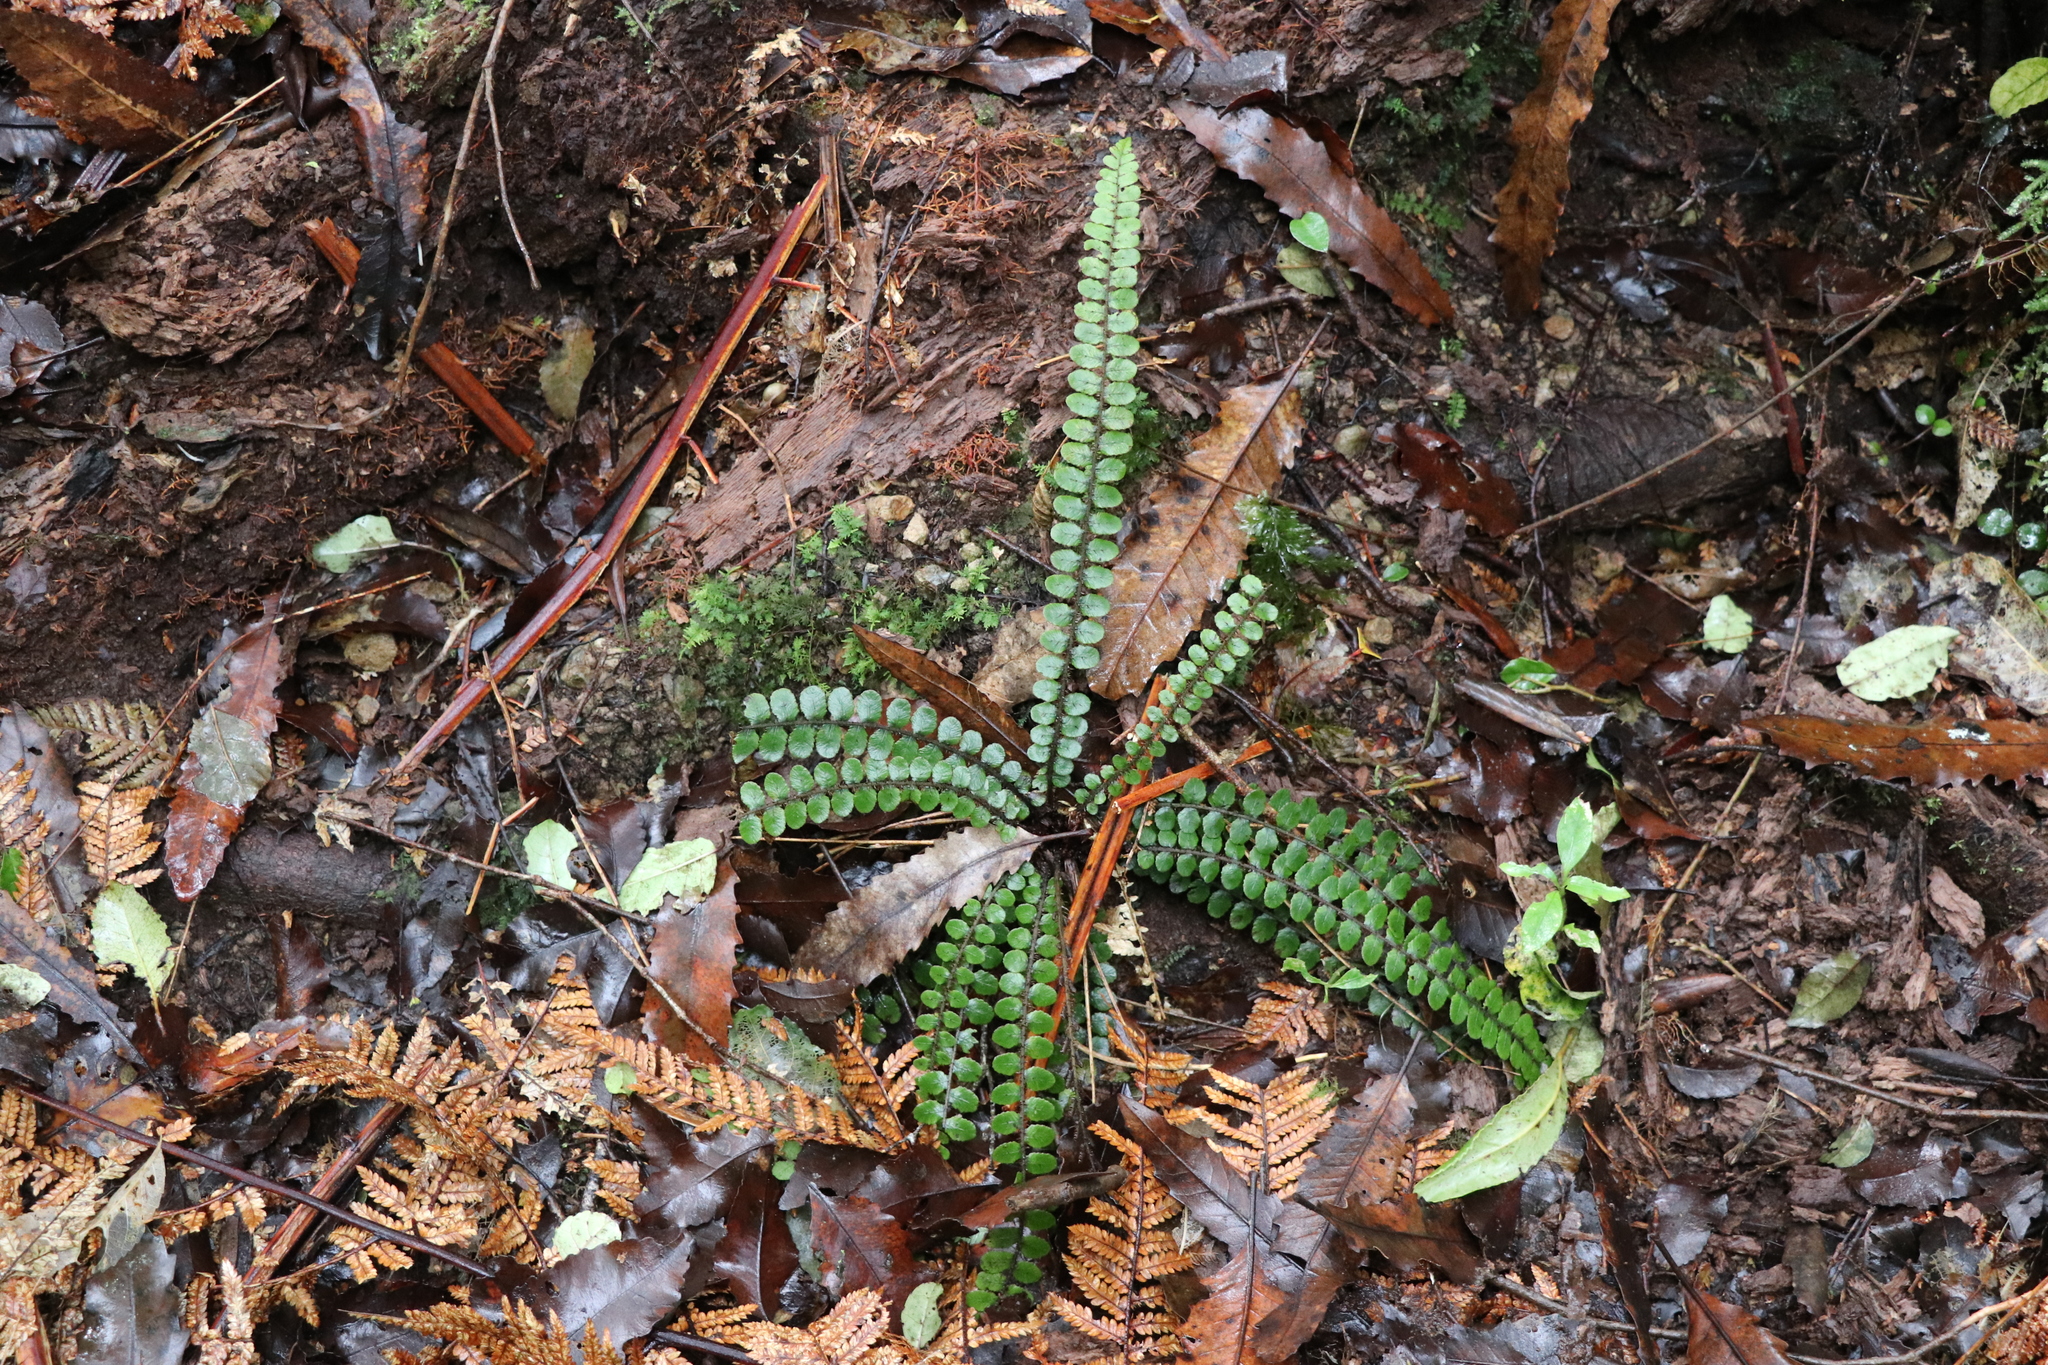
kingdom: Plantae
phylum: Tracheophyta
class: Polypodiopsida
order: Polypodiales
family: Blechnaceae
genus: Cranfillia
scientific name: Cranfillia fluviatilis
